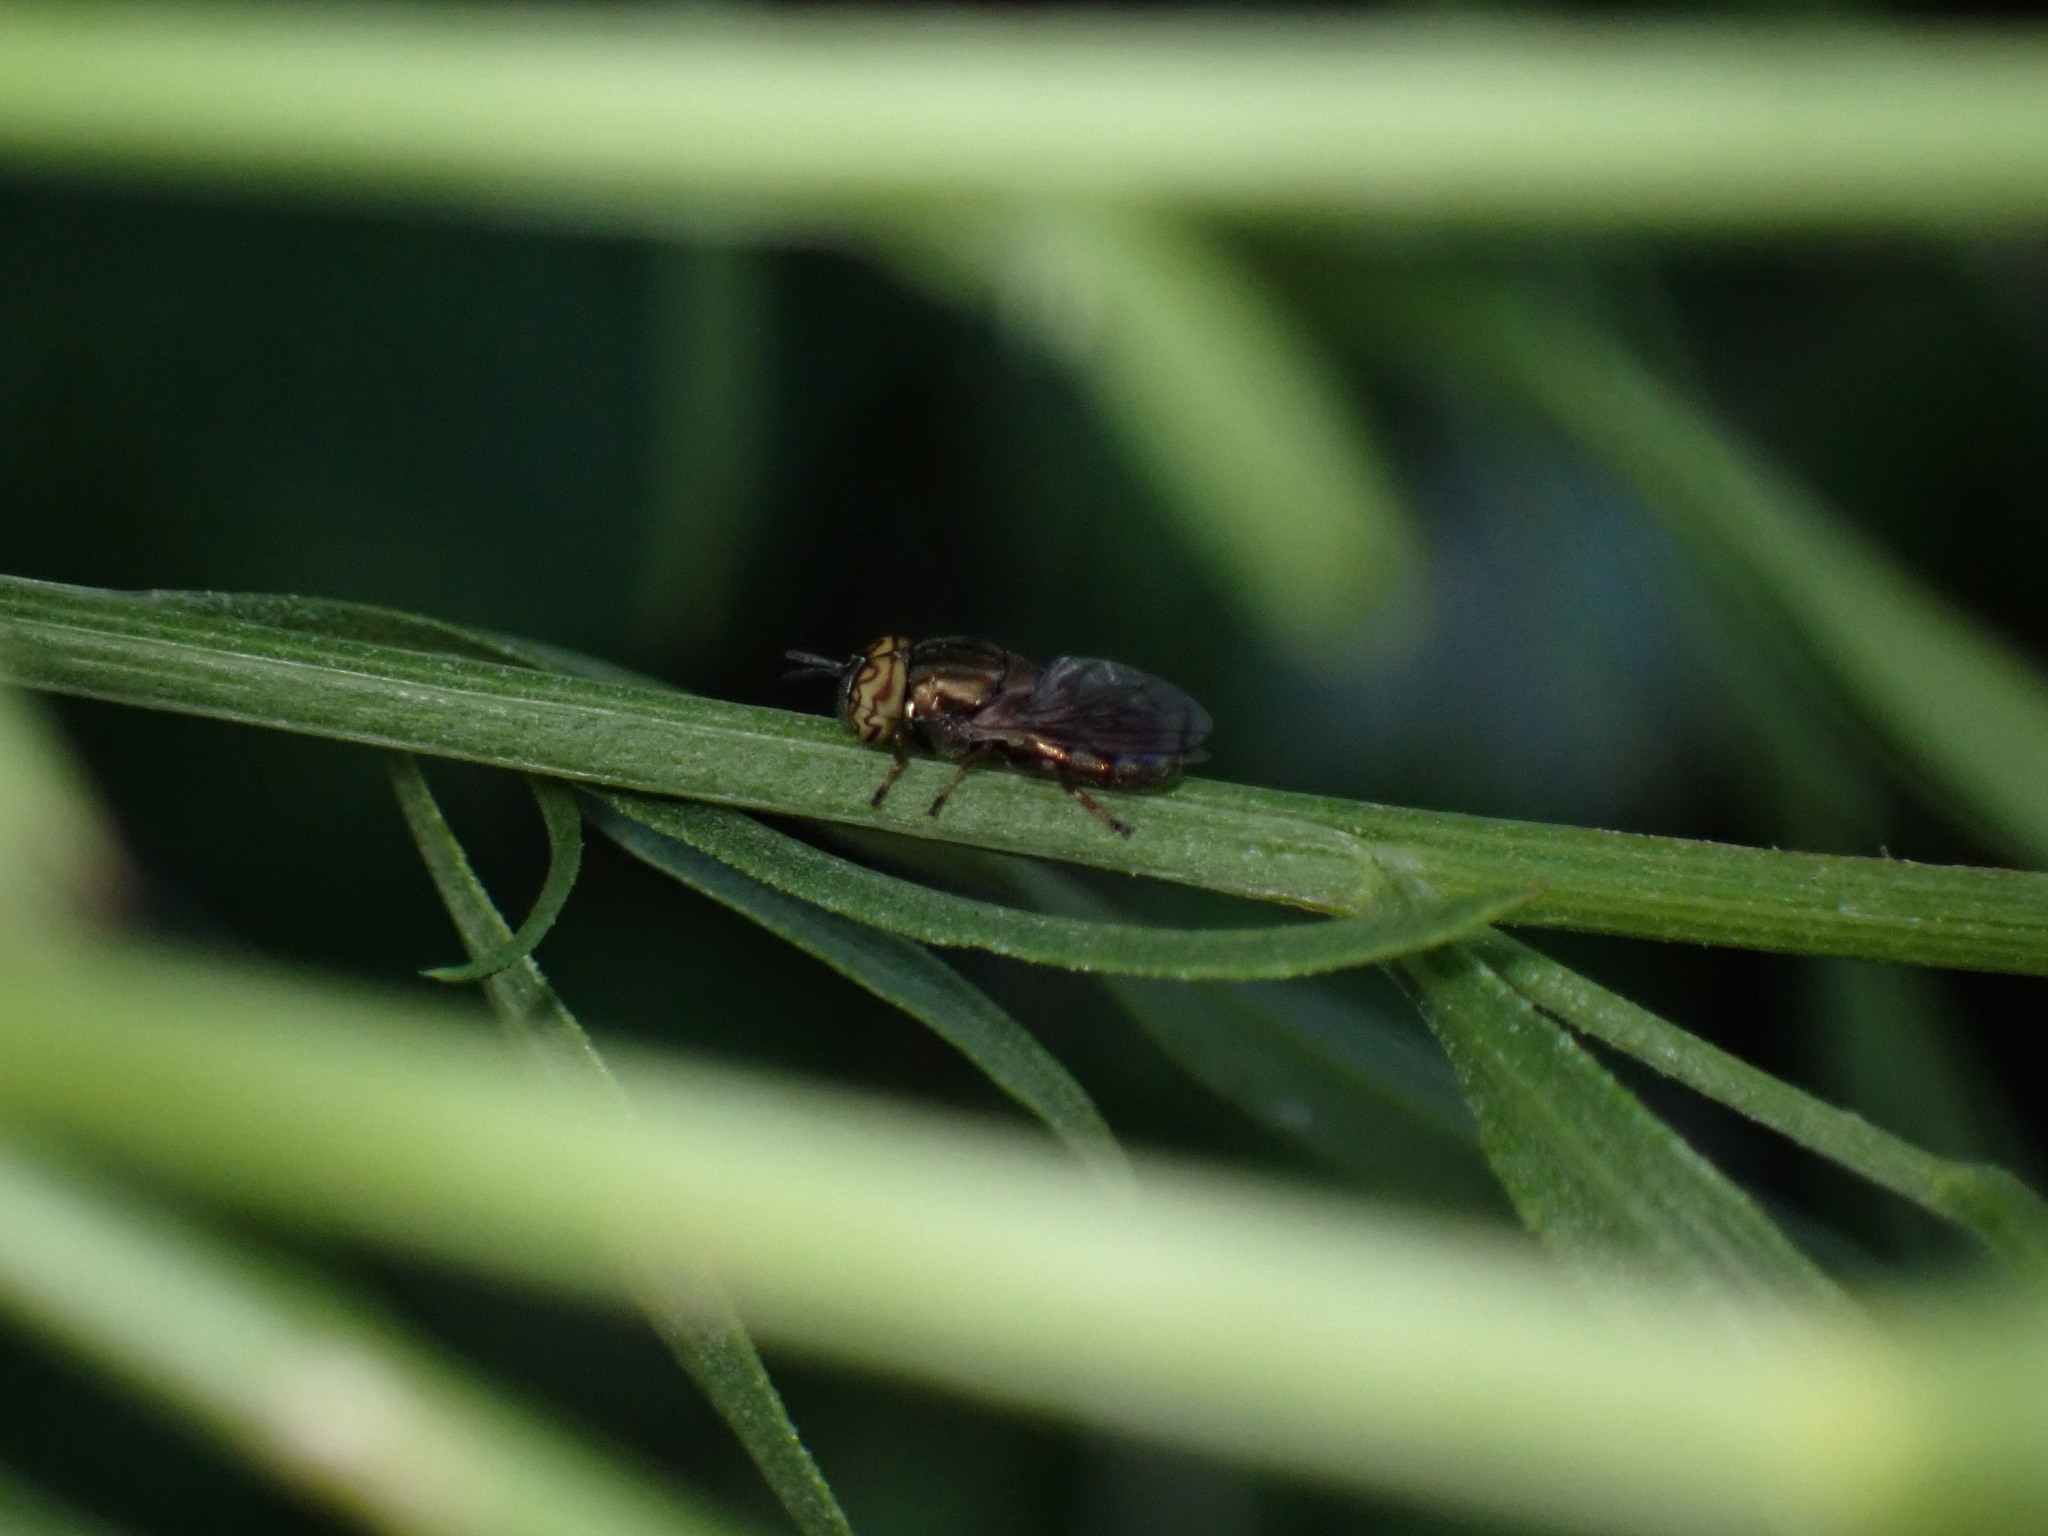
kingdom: Animalia
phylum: Arthropoda
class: Insecta
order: Diptera
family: Syrphidae
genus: Orthonevra
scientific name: Orthonevra flukei
